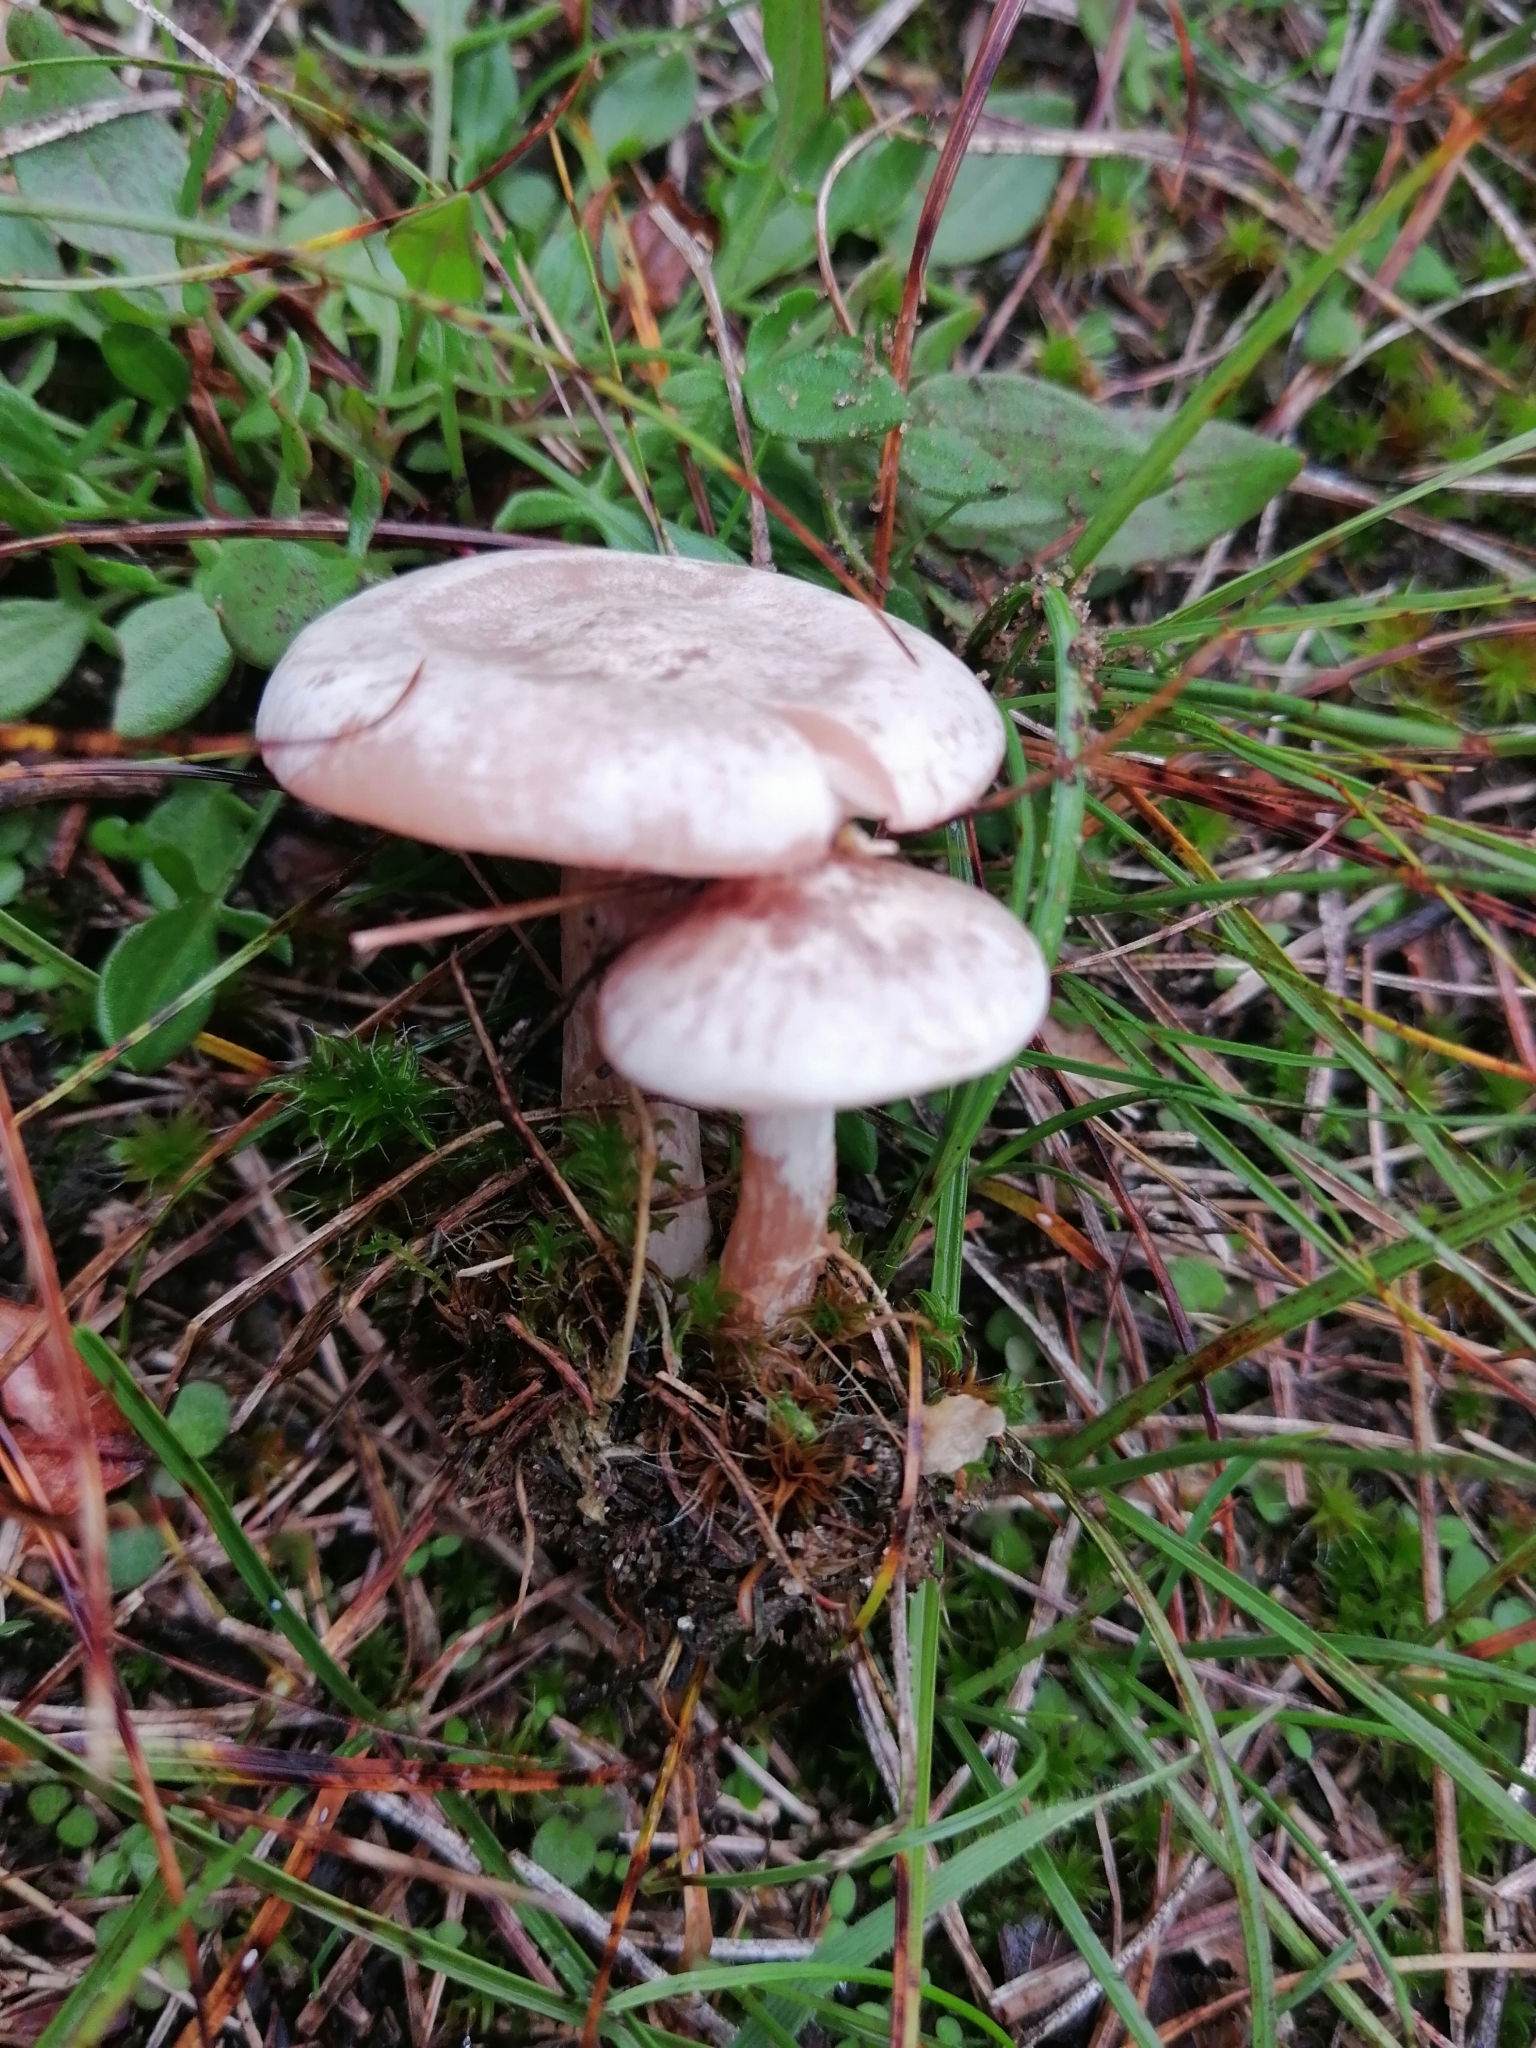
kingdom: Fungi
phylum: Basidiomycota
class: Agaricomycetes
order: Agaricales
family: Tricholomataceae
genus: Collybia
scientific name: Collybia
